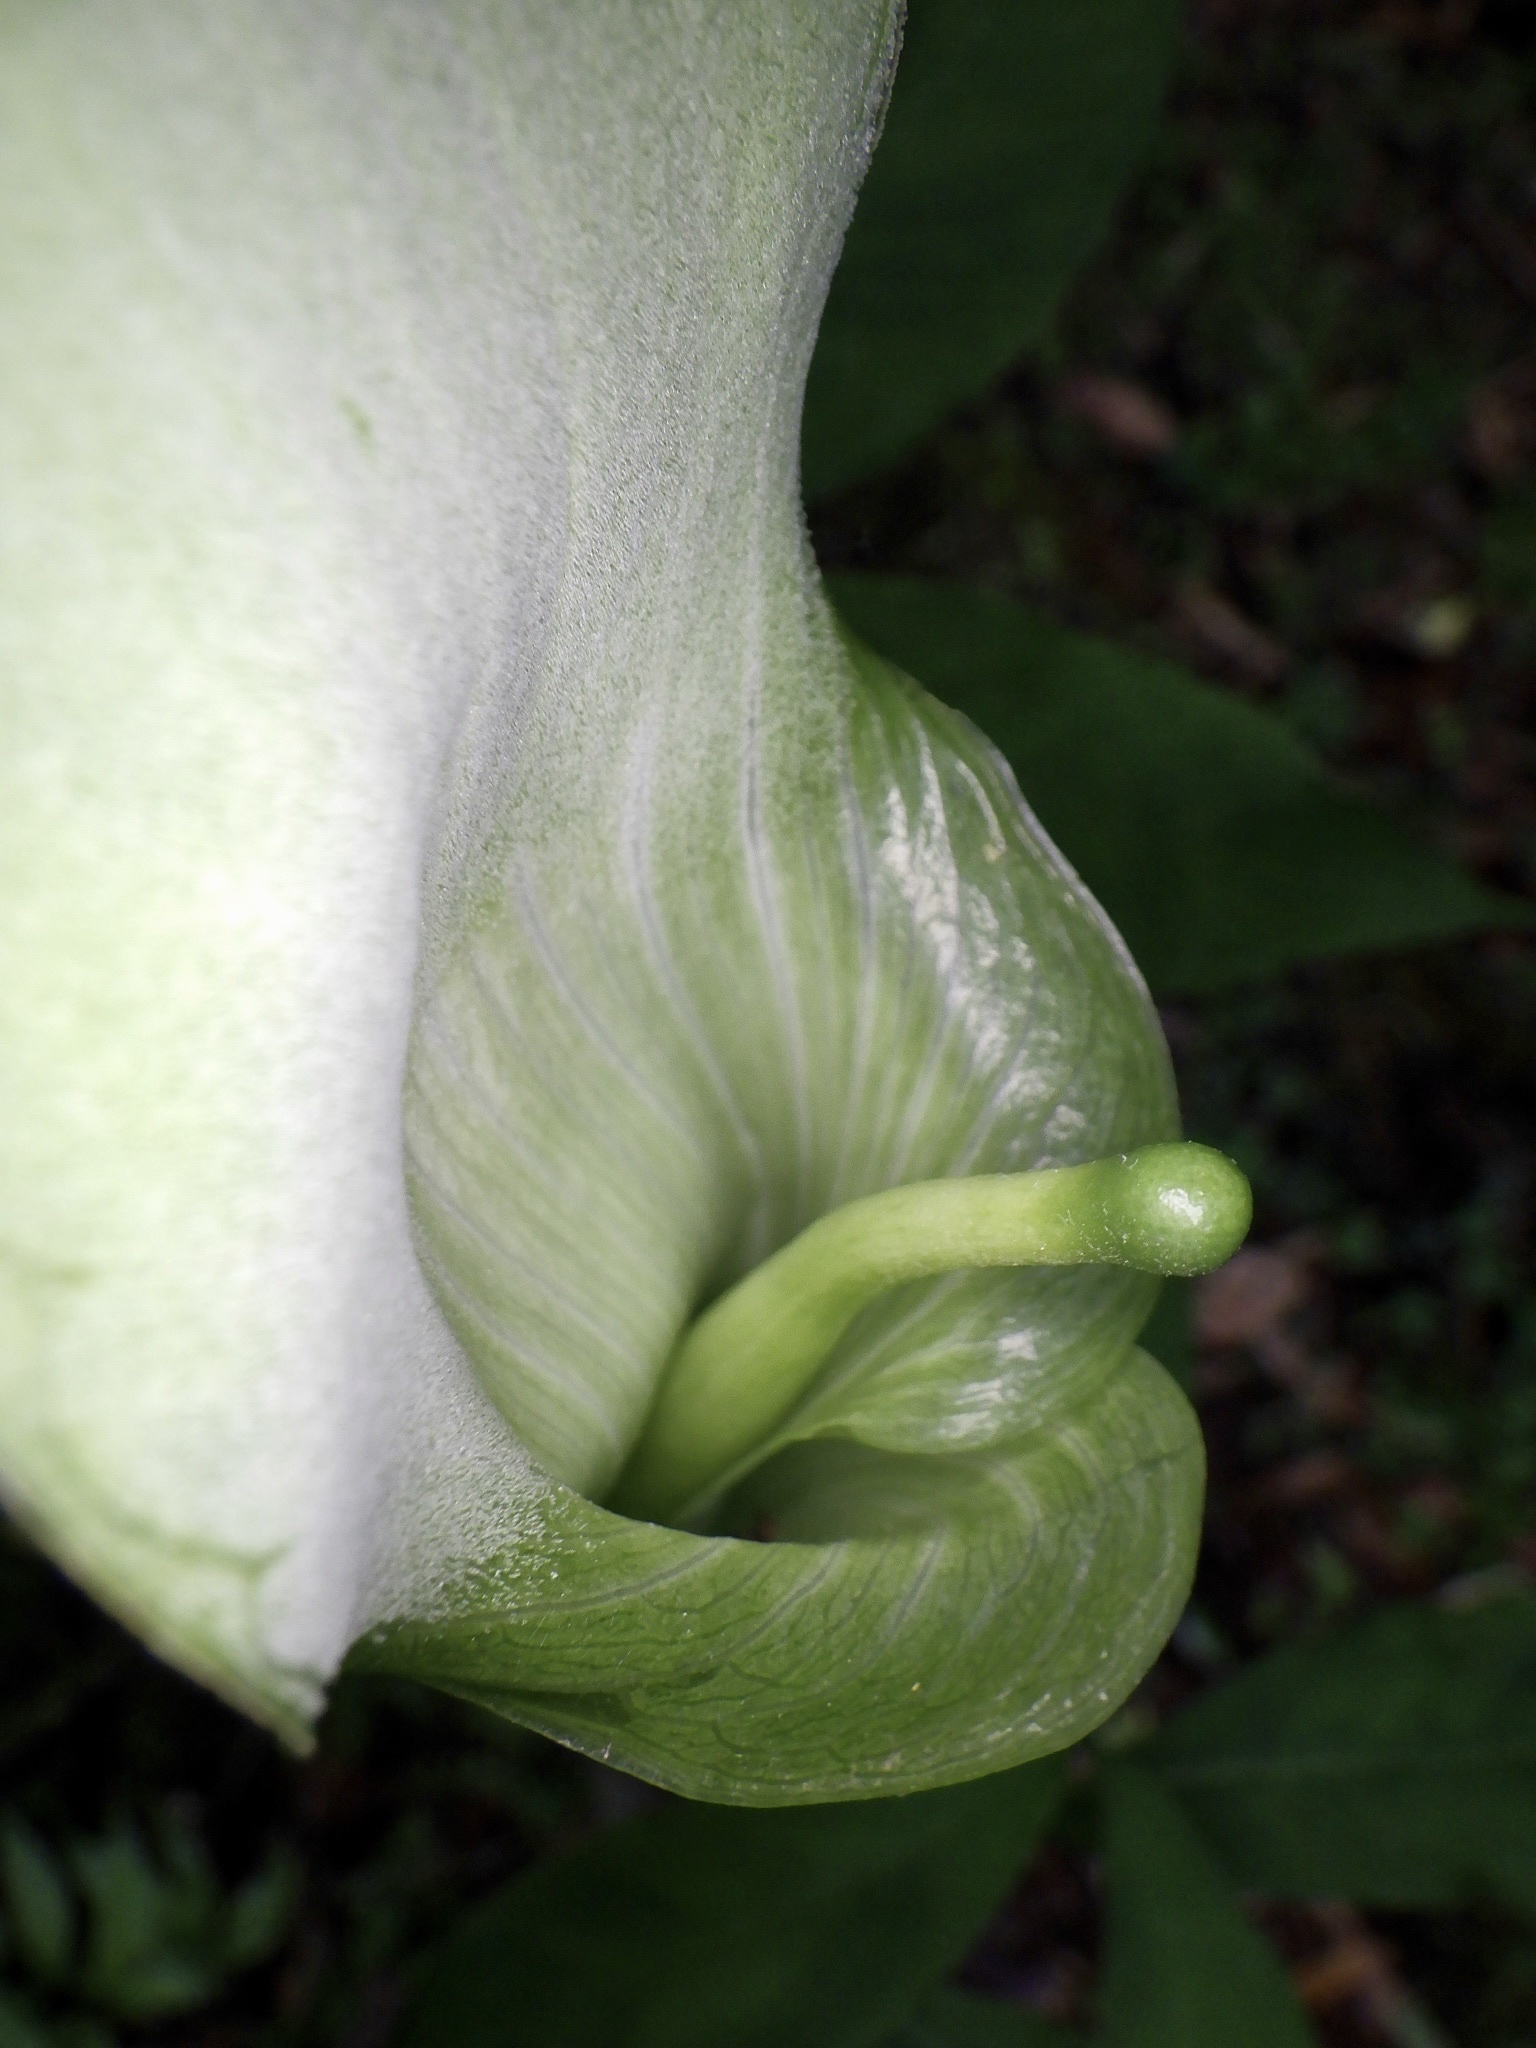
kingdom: Plantae
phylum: Tracheophyta
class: Liliopsida
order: Alismatales
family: Araceae
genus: Arisaema
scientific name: Arisaema yamatense
